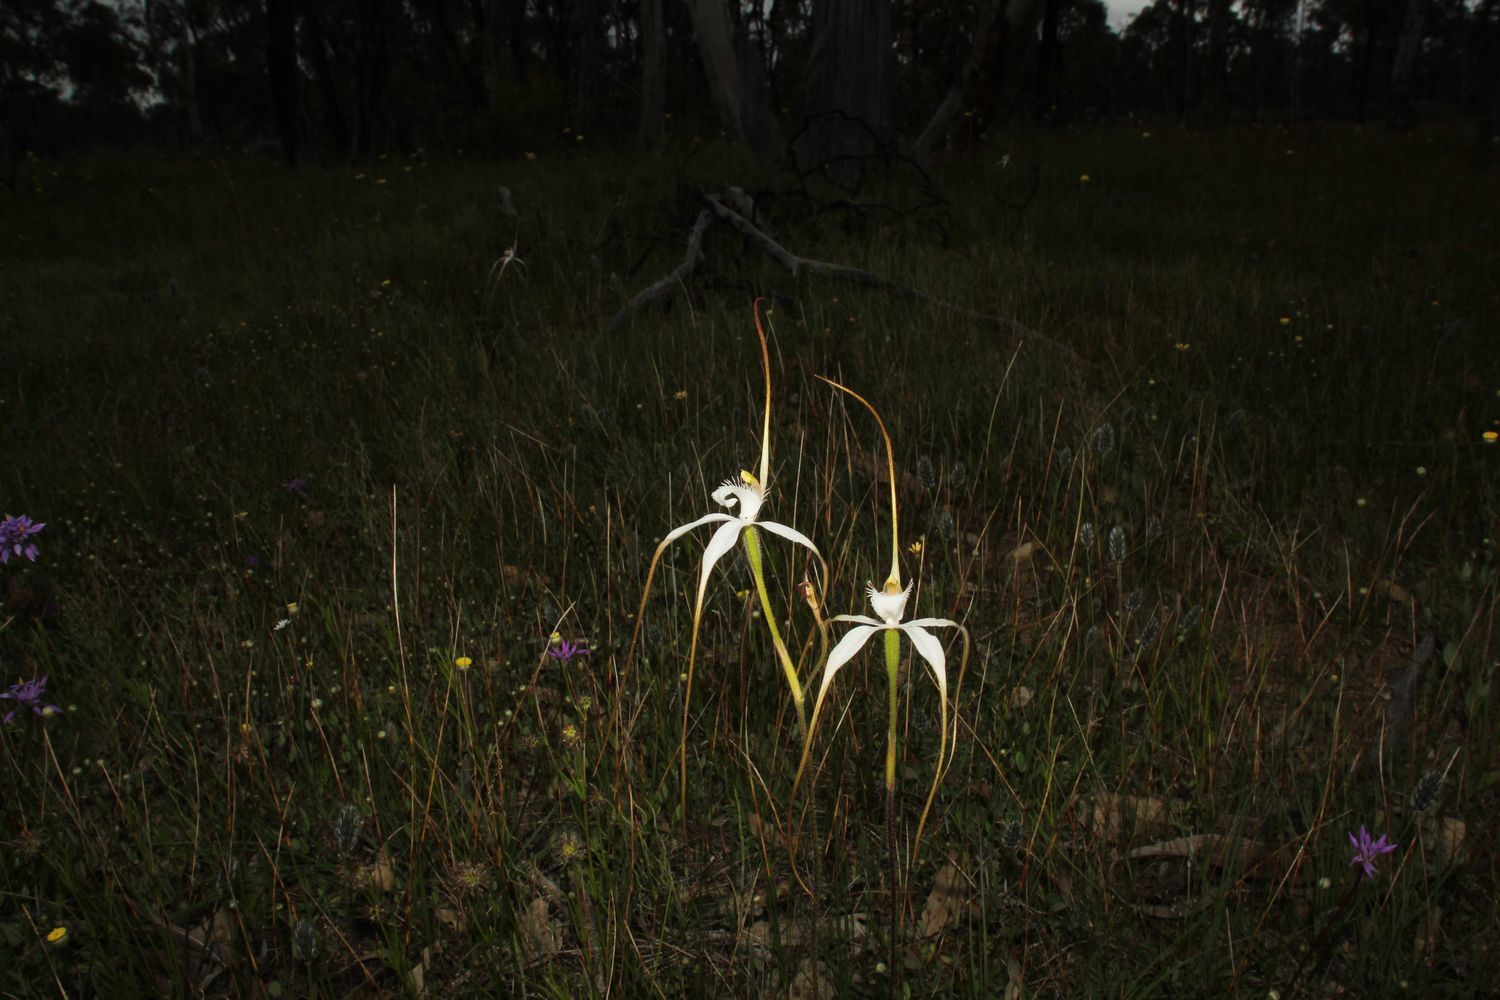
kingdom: Plantae
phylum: Tracheophyta
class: Liliopsida
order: Asparagales
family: Orchidaceae
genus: Caladenia
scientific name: Caladenia longicauda
